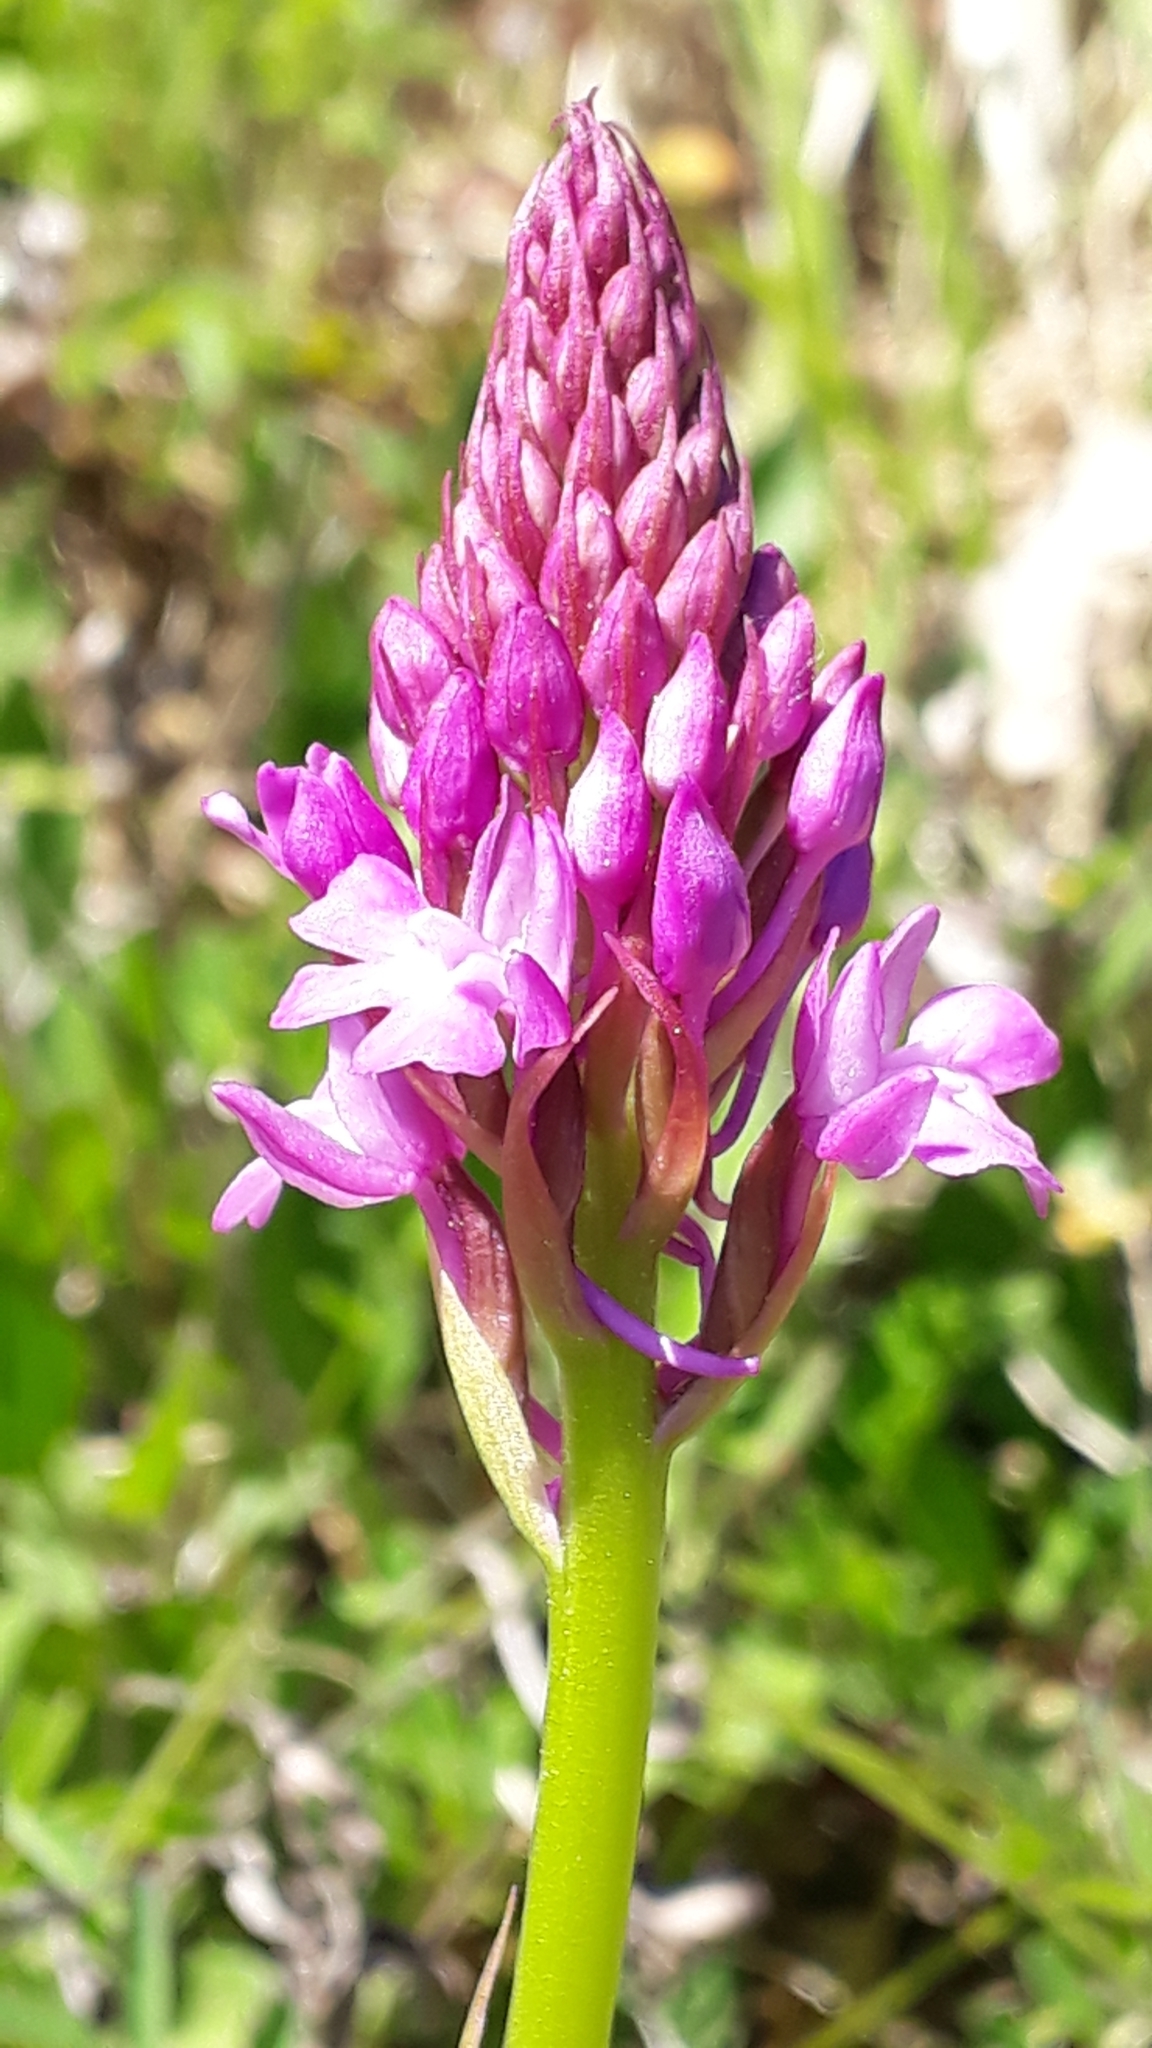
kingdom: Plantae
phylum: Tracheophyta
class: Liliopsida
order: Asparagales
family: Orchidaceae
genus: Anacamptis
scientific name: Anacamptis pyramidalis
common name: Pyramidal orchid
